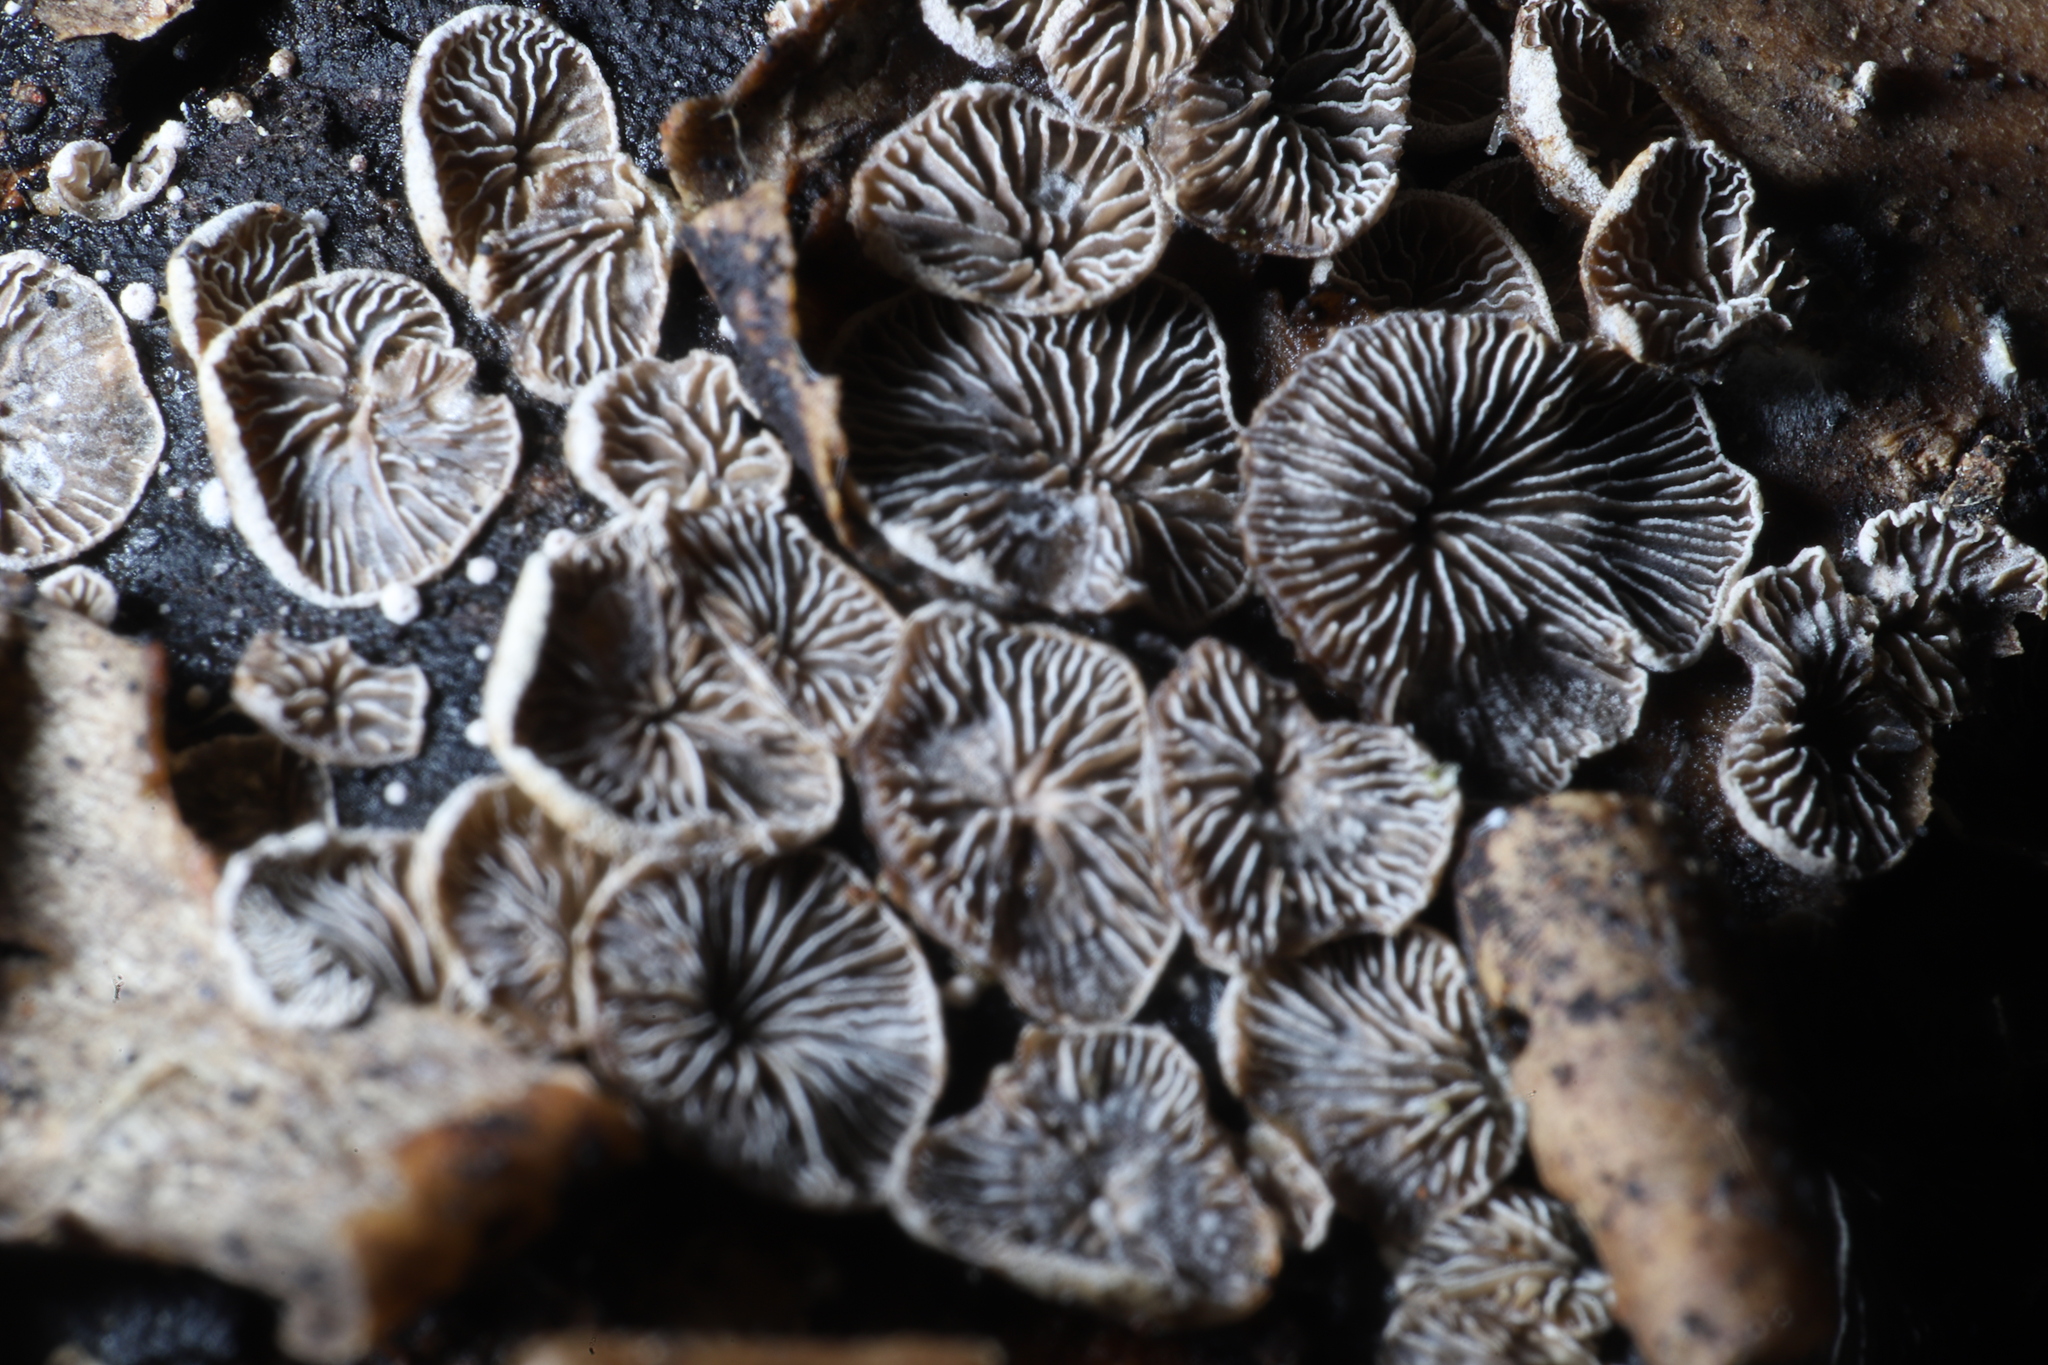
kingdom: Fungi
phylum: Basidiomycota
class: Agaricomycetes
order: Agaricales
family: Pleurotaceae
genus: Resupinatus
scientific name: Resupinatus applicatus
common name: Smoked oysterling
